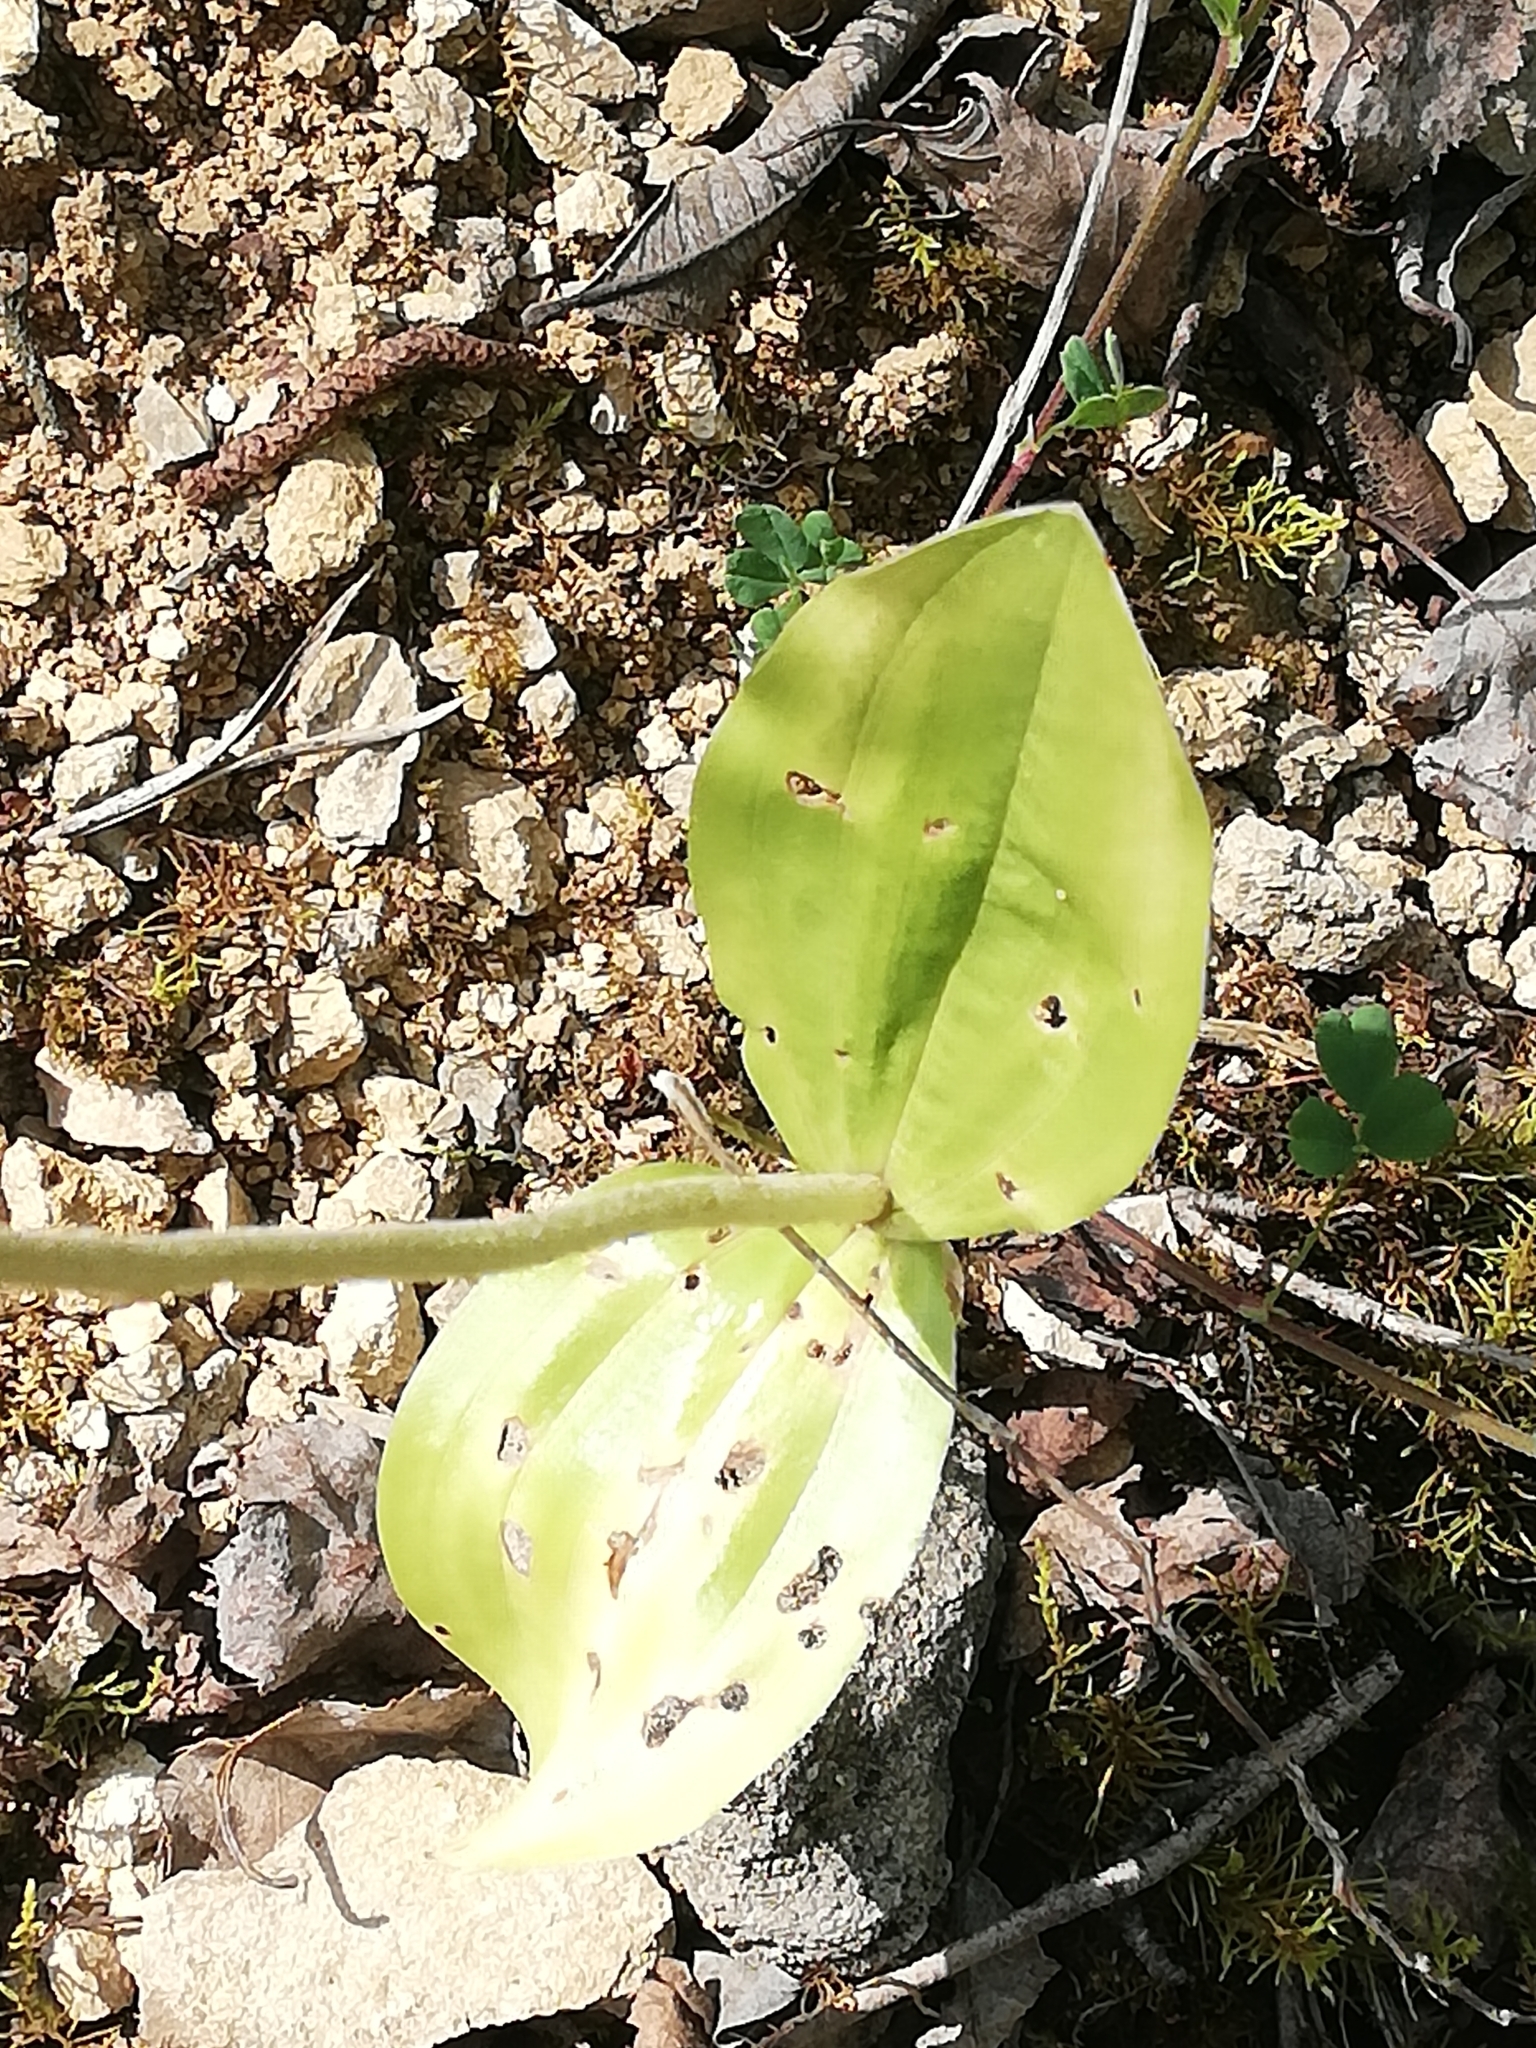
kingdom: Plantae
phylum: Tracheophyta
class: Liliopsida
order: Asparagales
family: Orchidaceae
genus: Neottia
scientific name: Neottia ovata
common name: Common twayblade
